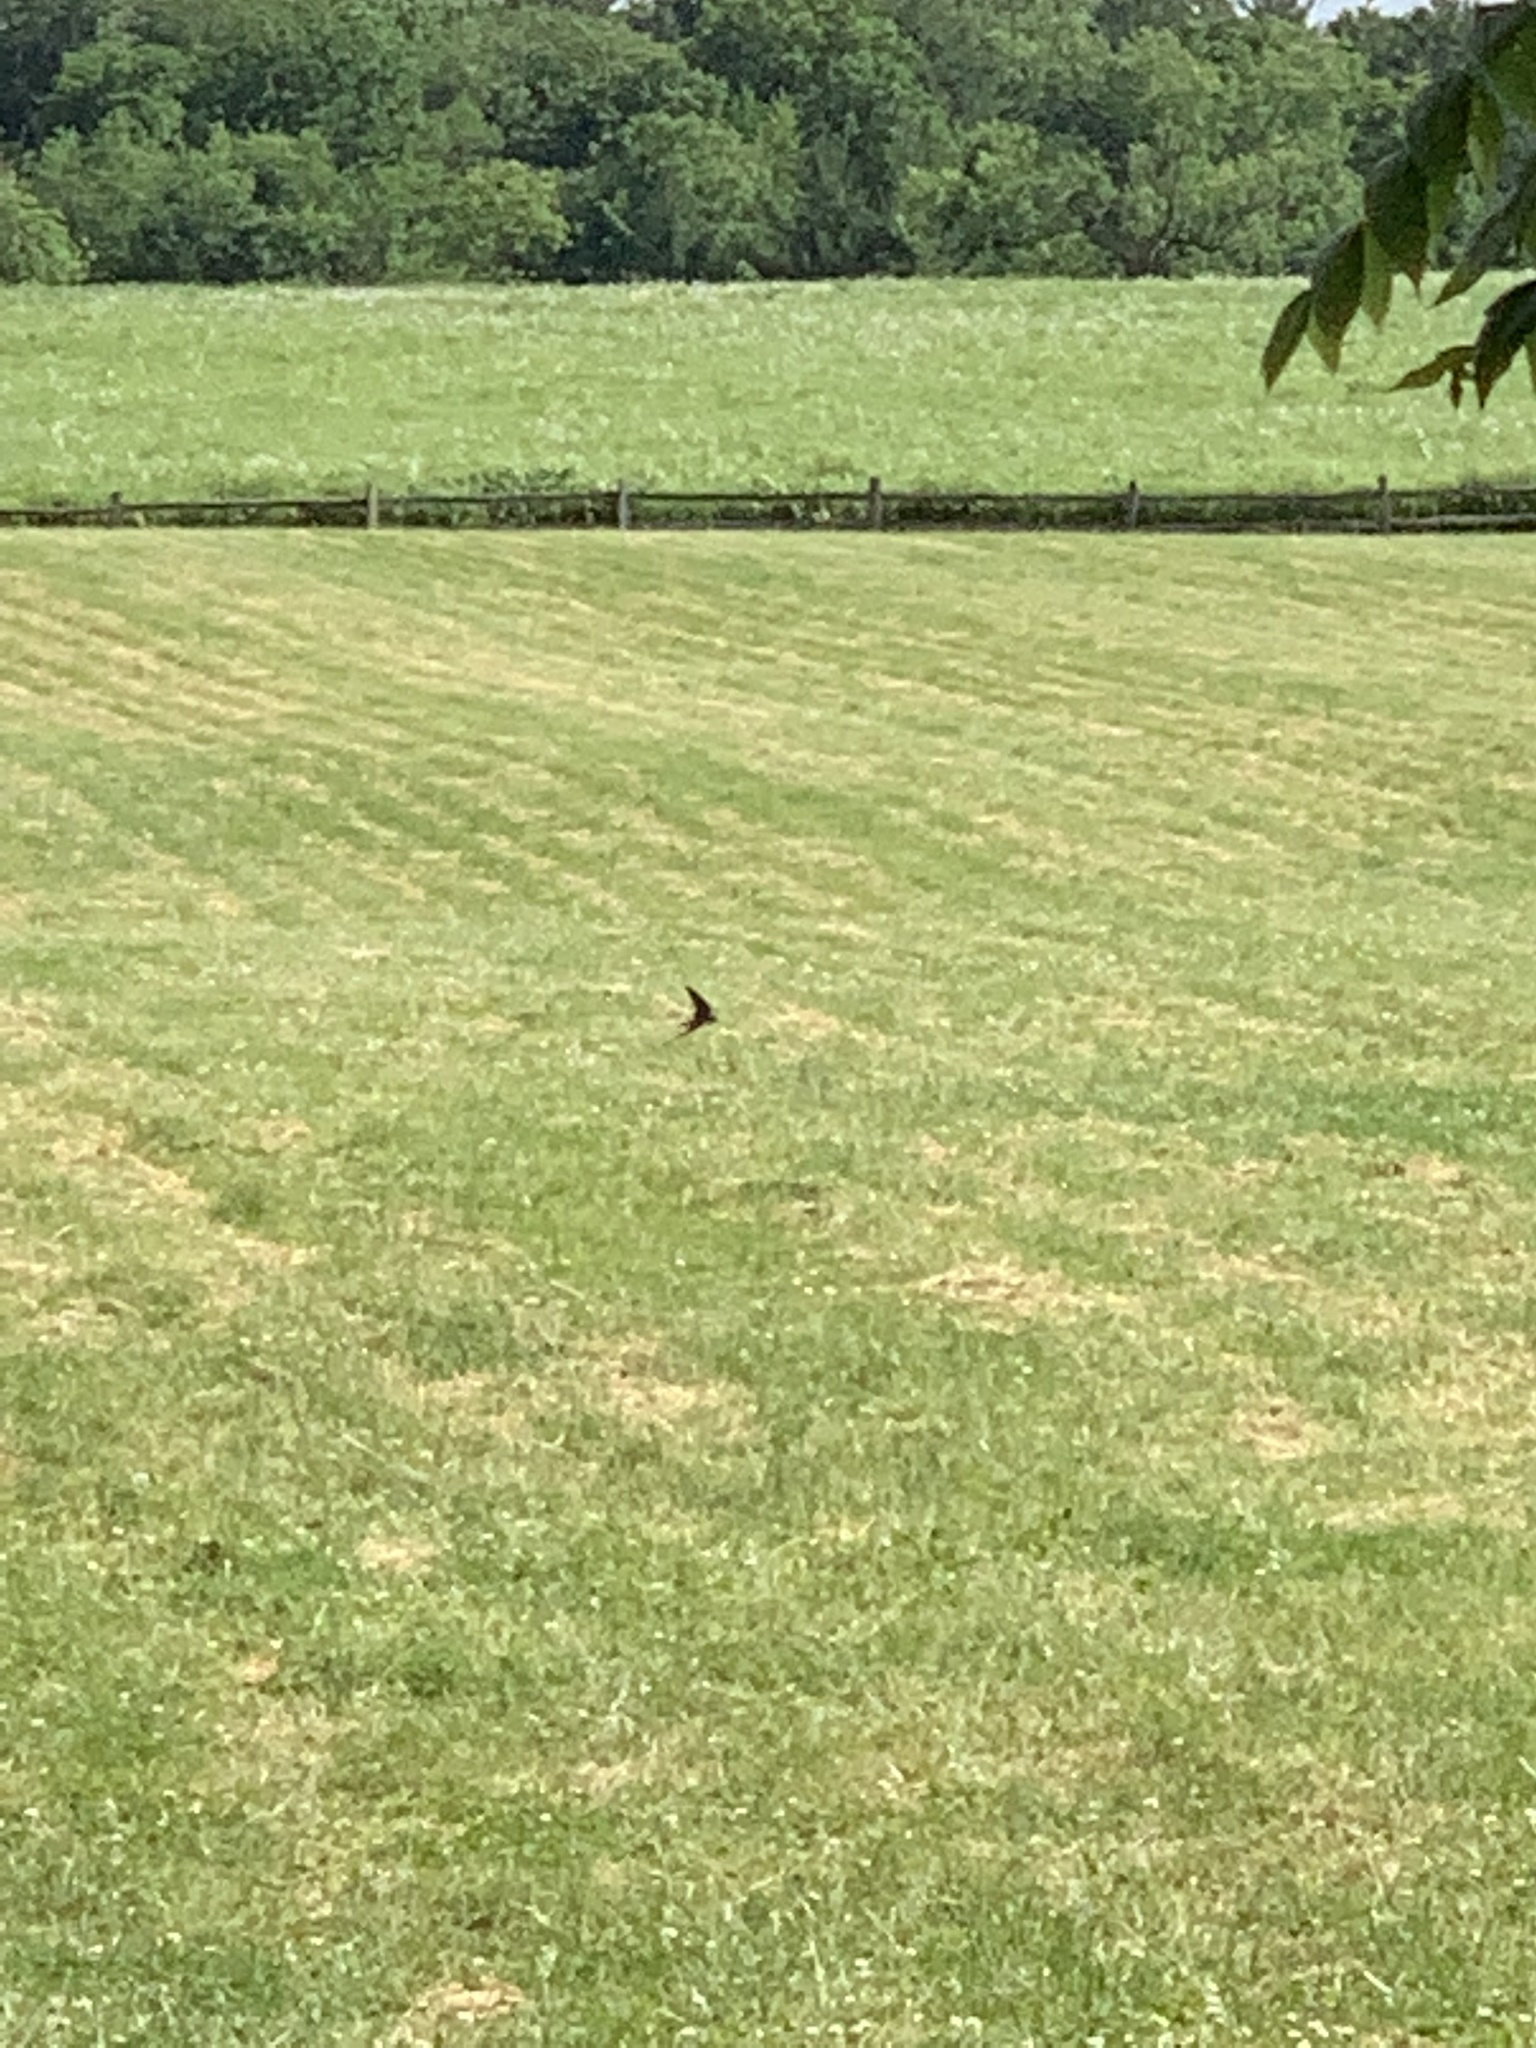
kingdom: Animalia
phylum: Chordata
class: Aves
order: Passeriformes
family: Hirundinidae
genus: Tachycineta
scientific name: Tachycineta bicolor
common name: Tree swallow
